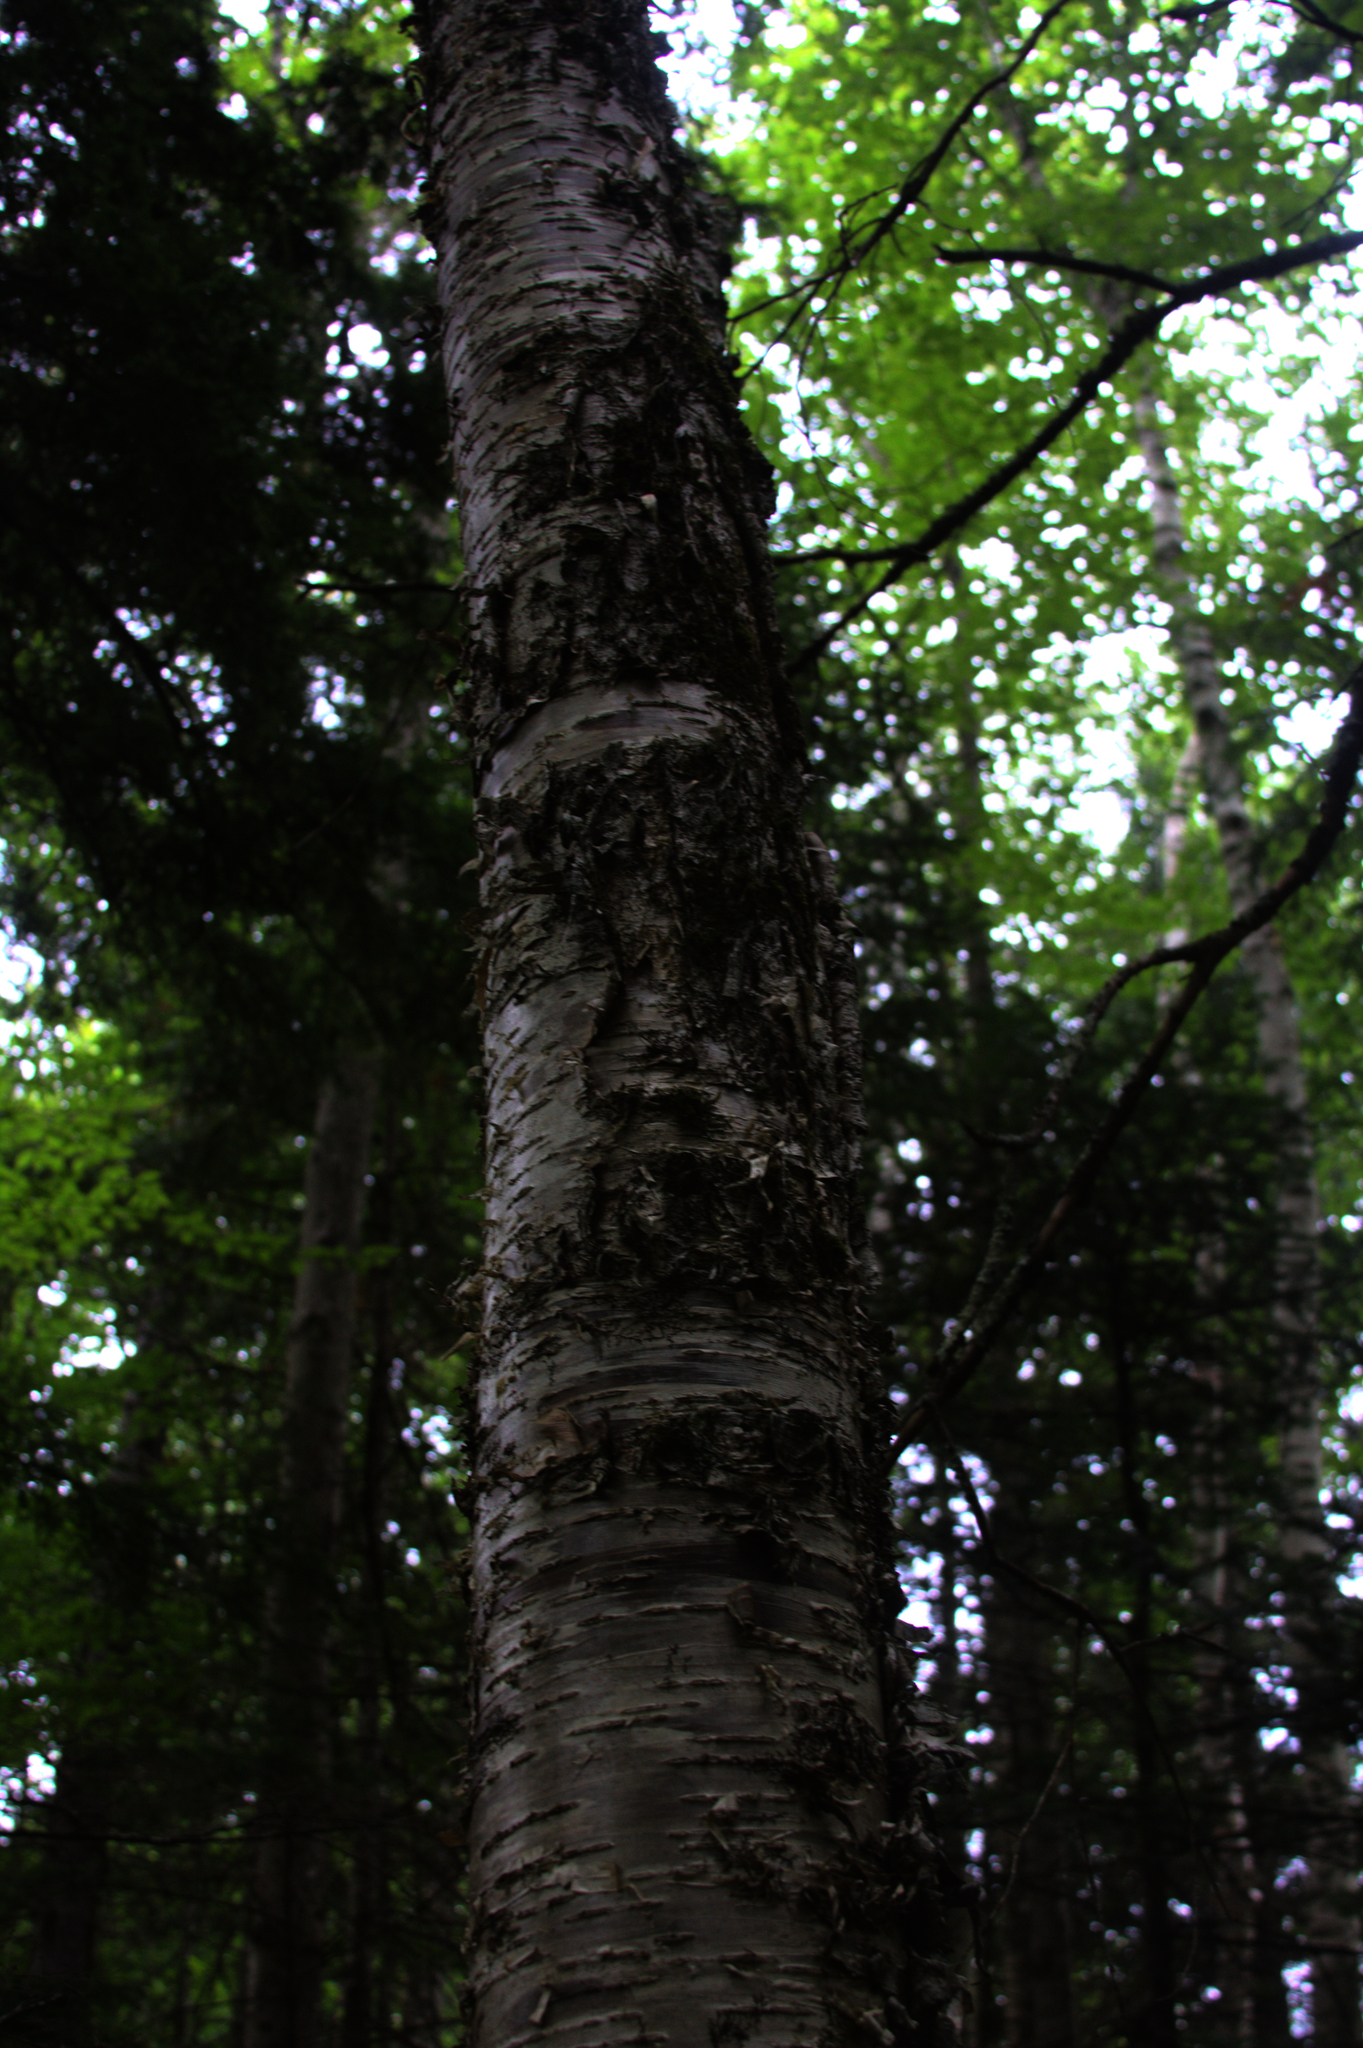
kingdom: Plantae
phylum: Tracheophyta
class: Magnoliopsida
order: Fagales
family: Betulaceae
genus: Betula
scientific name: Betula alleghaniensis
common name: Yellow birch
